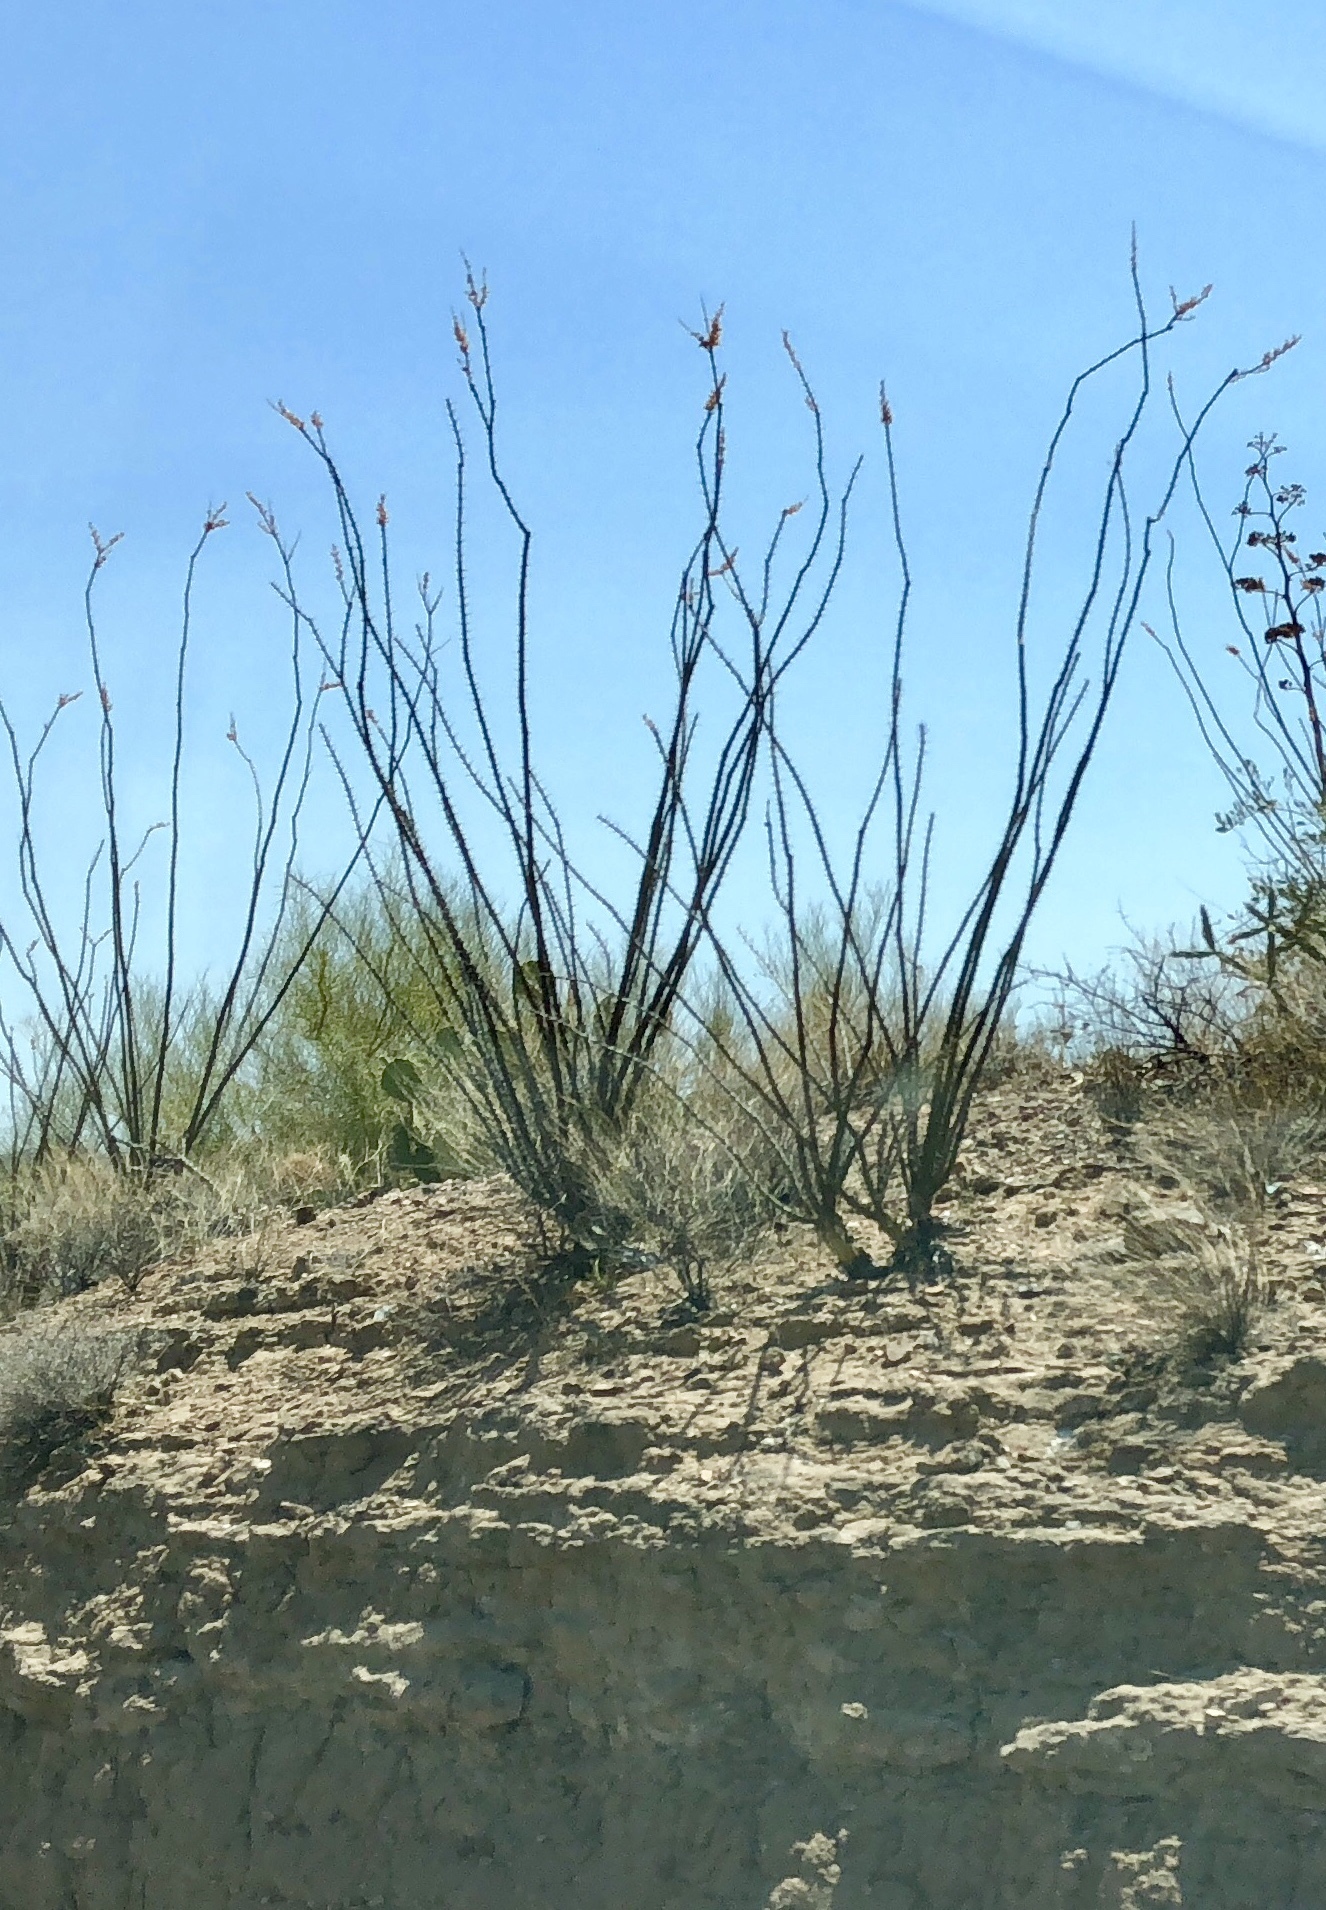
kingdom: Plantae
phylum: Tracheophyta
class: Magnoliopsida
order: Ericales
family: Fouquieriaceae
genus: Fouquieria
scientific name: Fouquieria splendens
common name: Vine-cactus
